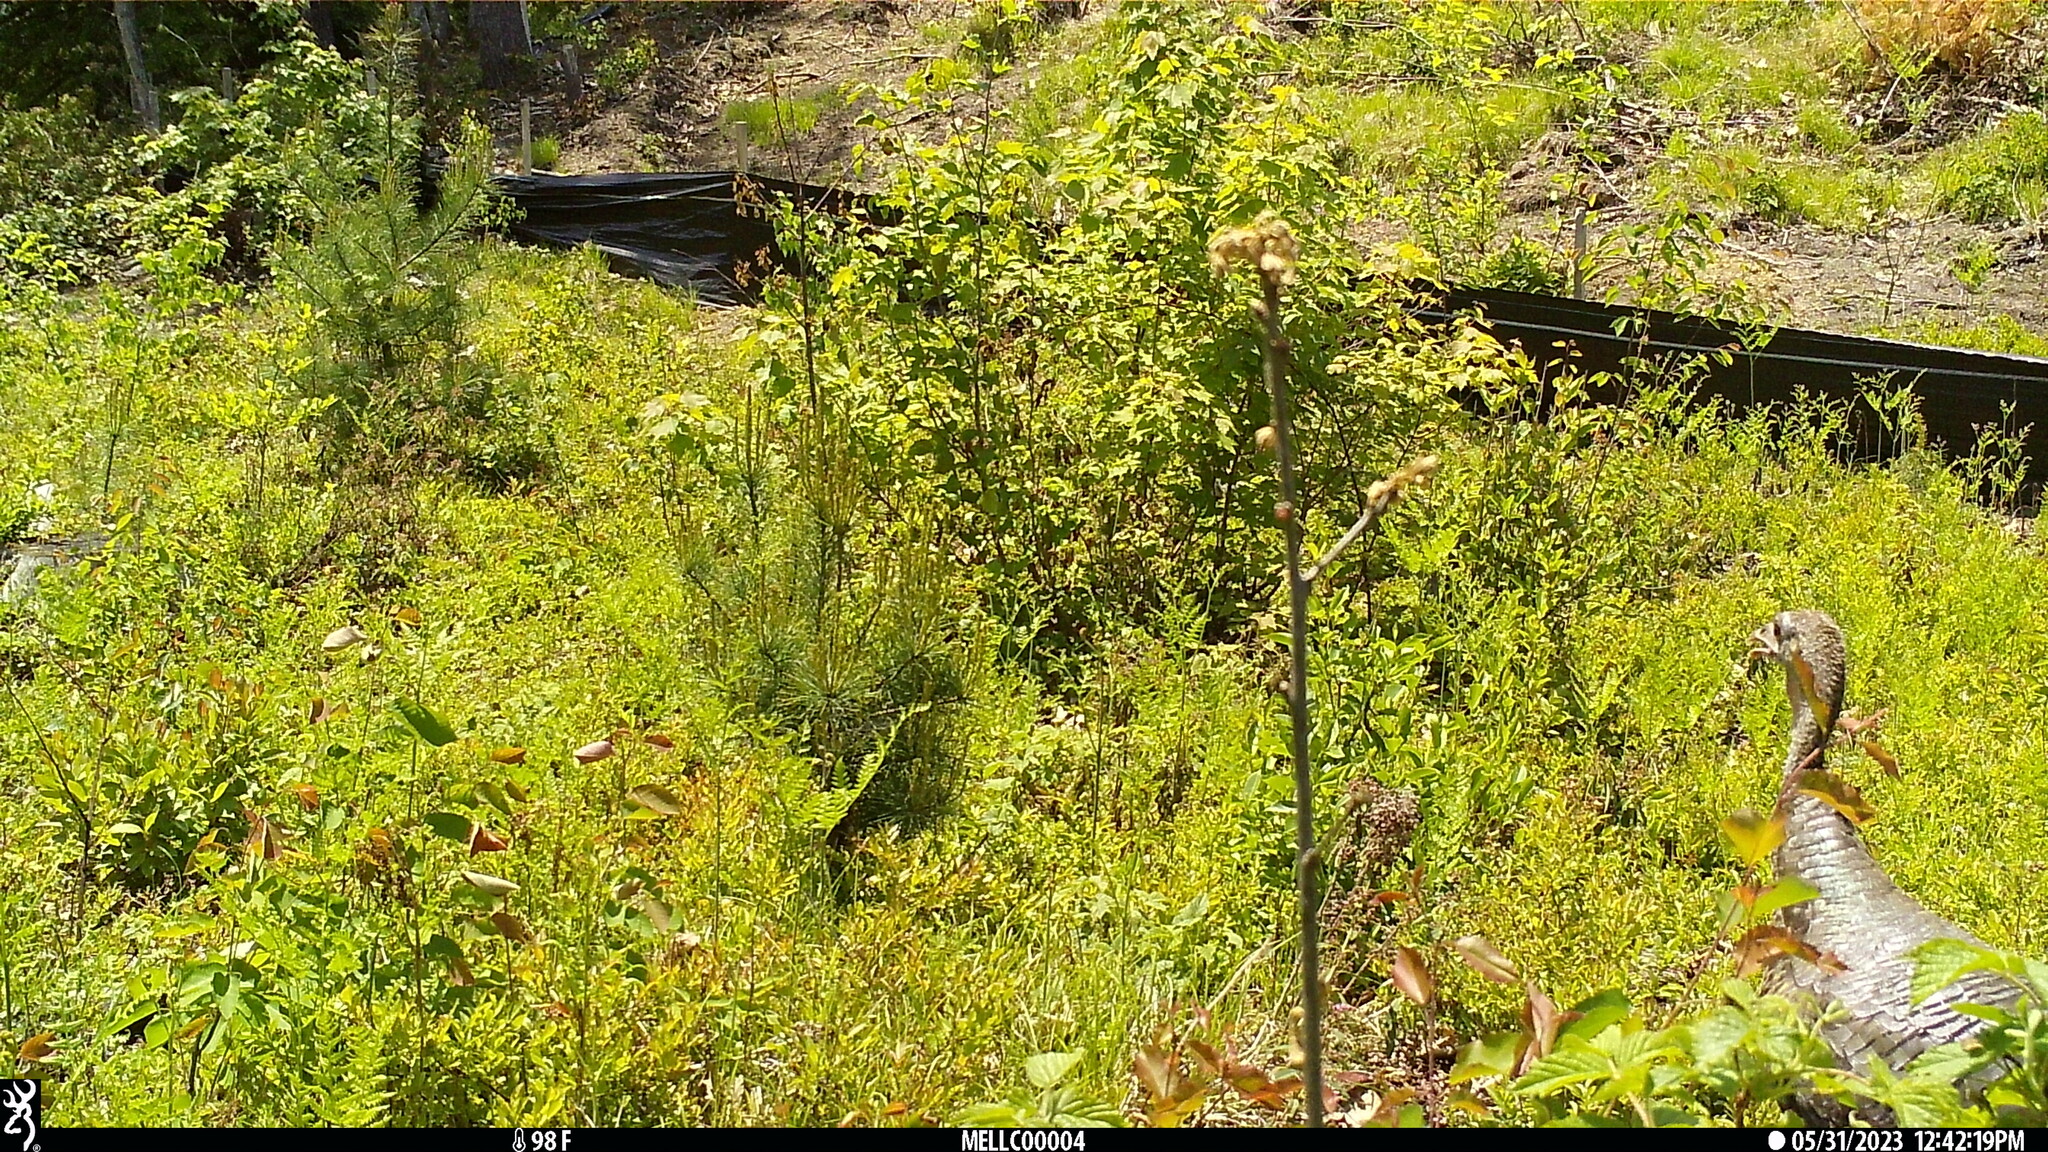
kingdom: Animalia
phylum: Chordata
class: Aves
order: Galliformes
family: Phasianidae
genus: Meleagris
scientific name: Meleagris gallopavo
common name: Wild turkey
